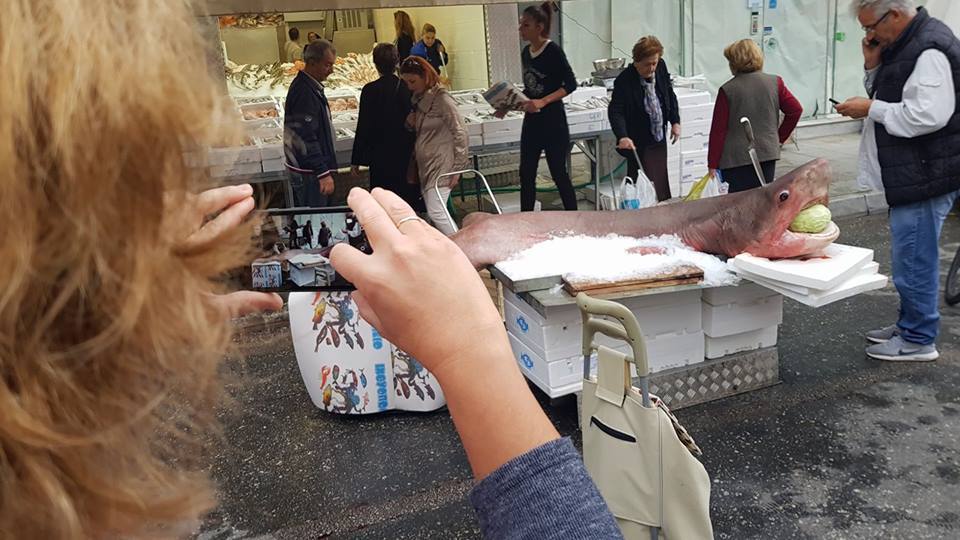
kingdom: Animalia
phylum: Chordata
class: Elasmobranchii
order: Hexanchiformes
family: Hexanchidae
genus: Hexanchus
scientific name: Hexanchus griseus
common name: Bluntnose sixgill shark
